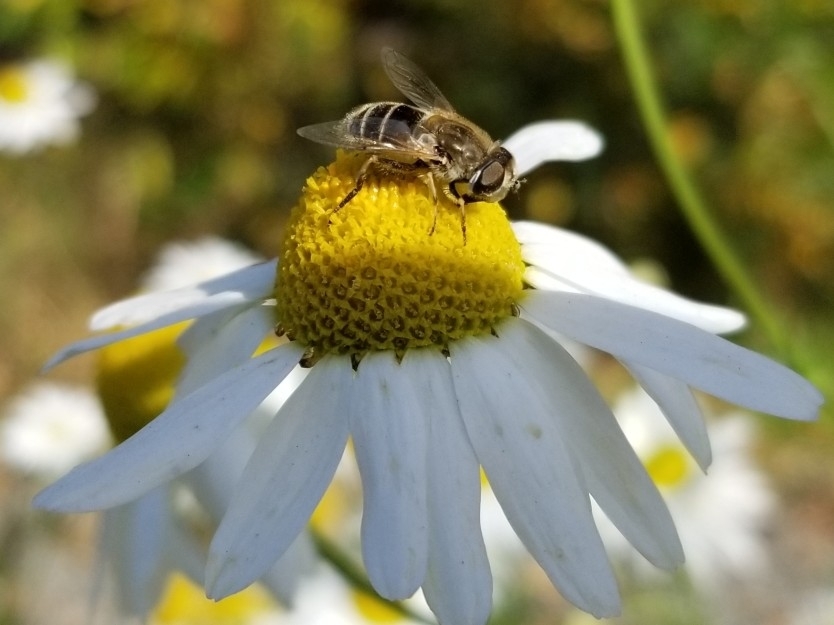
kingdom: Animalia
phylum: Arthropoda
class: Insecta
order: Diptera
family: Syrphidae
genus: Eristalis
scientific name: Eristalis arbustorum
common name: Hover fly
